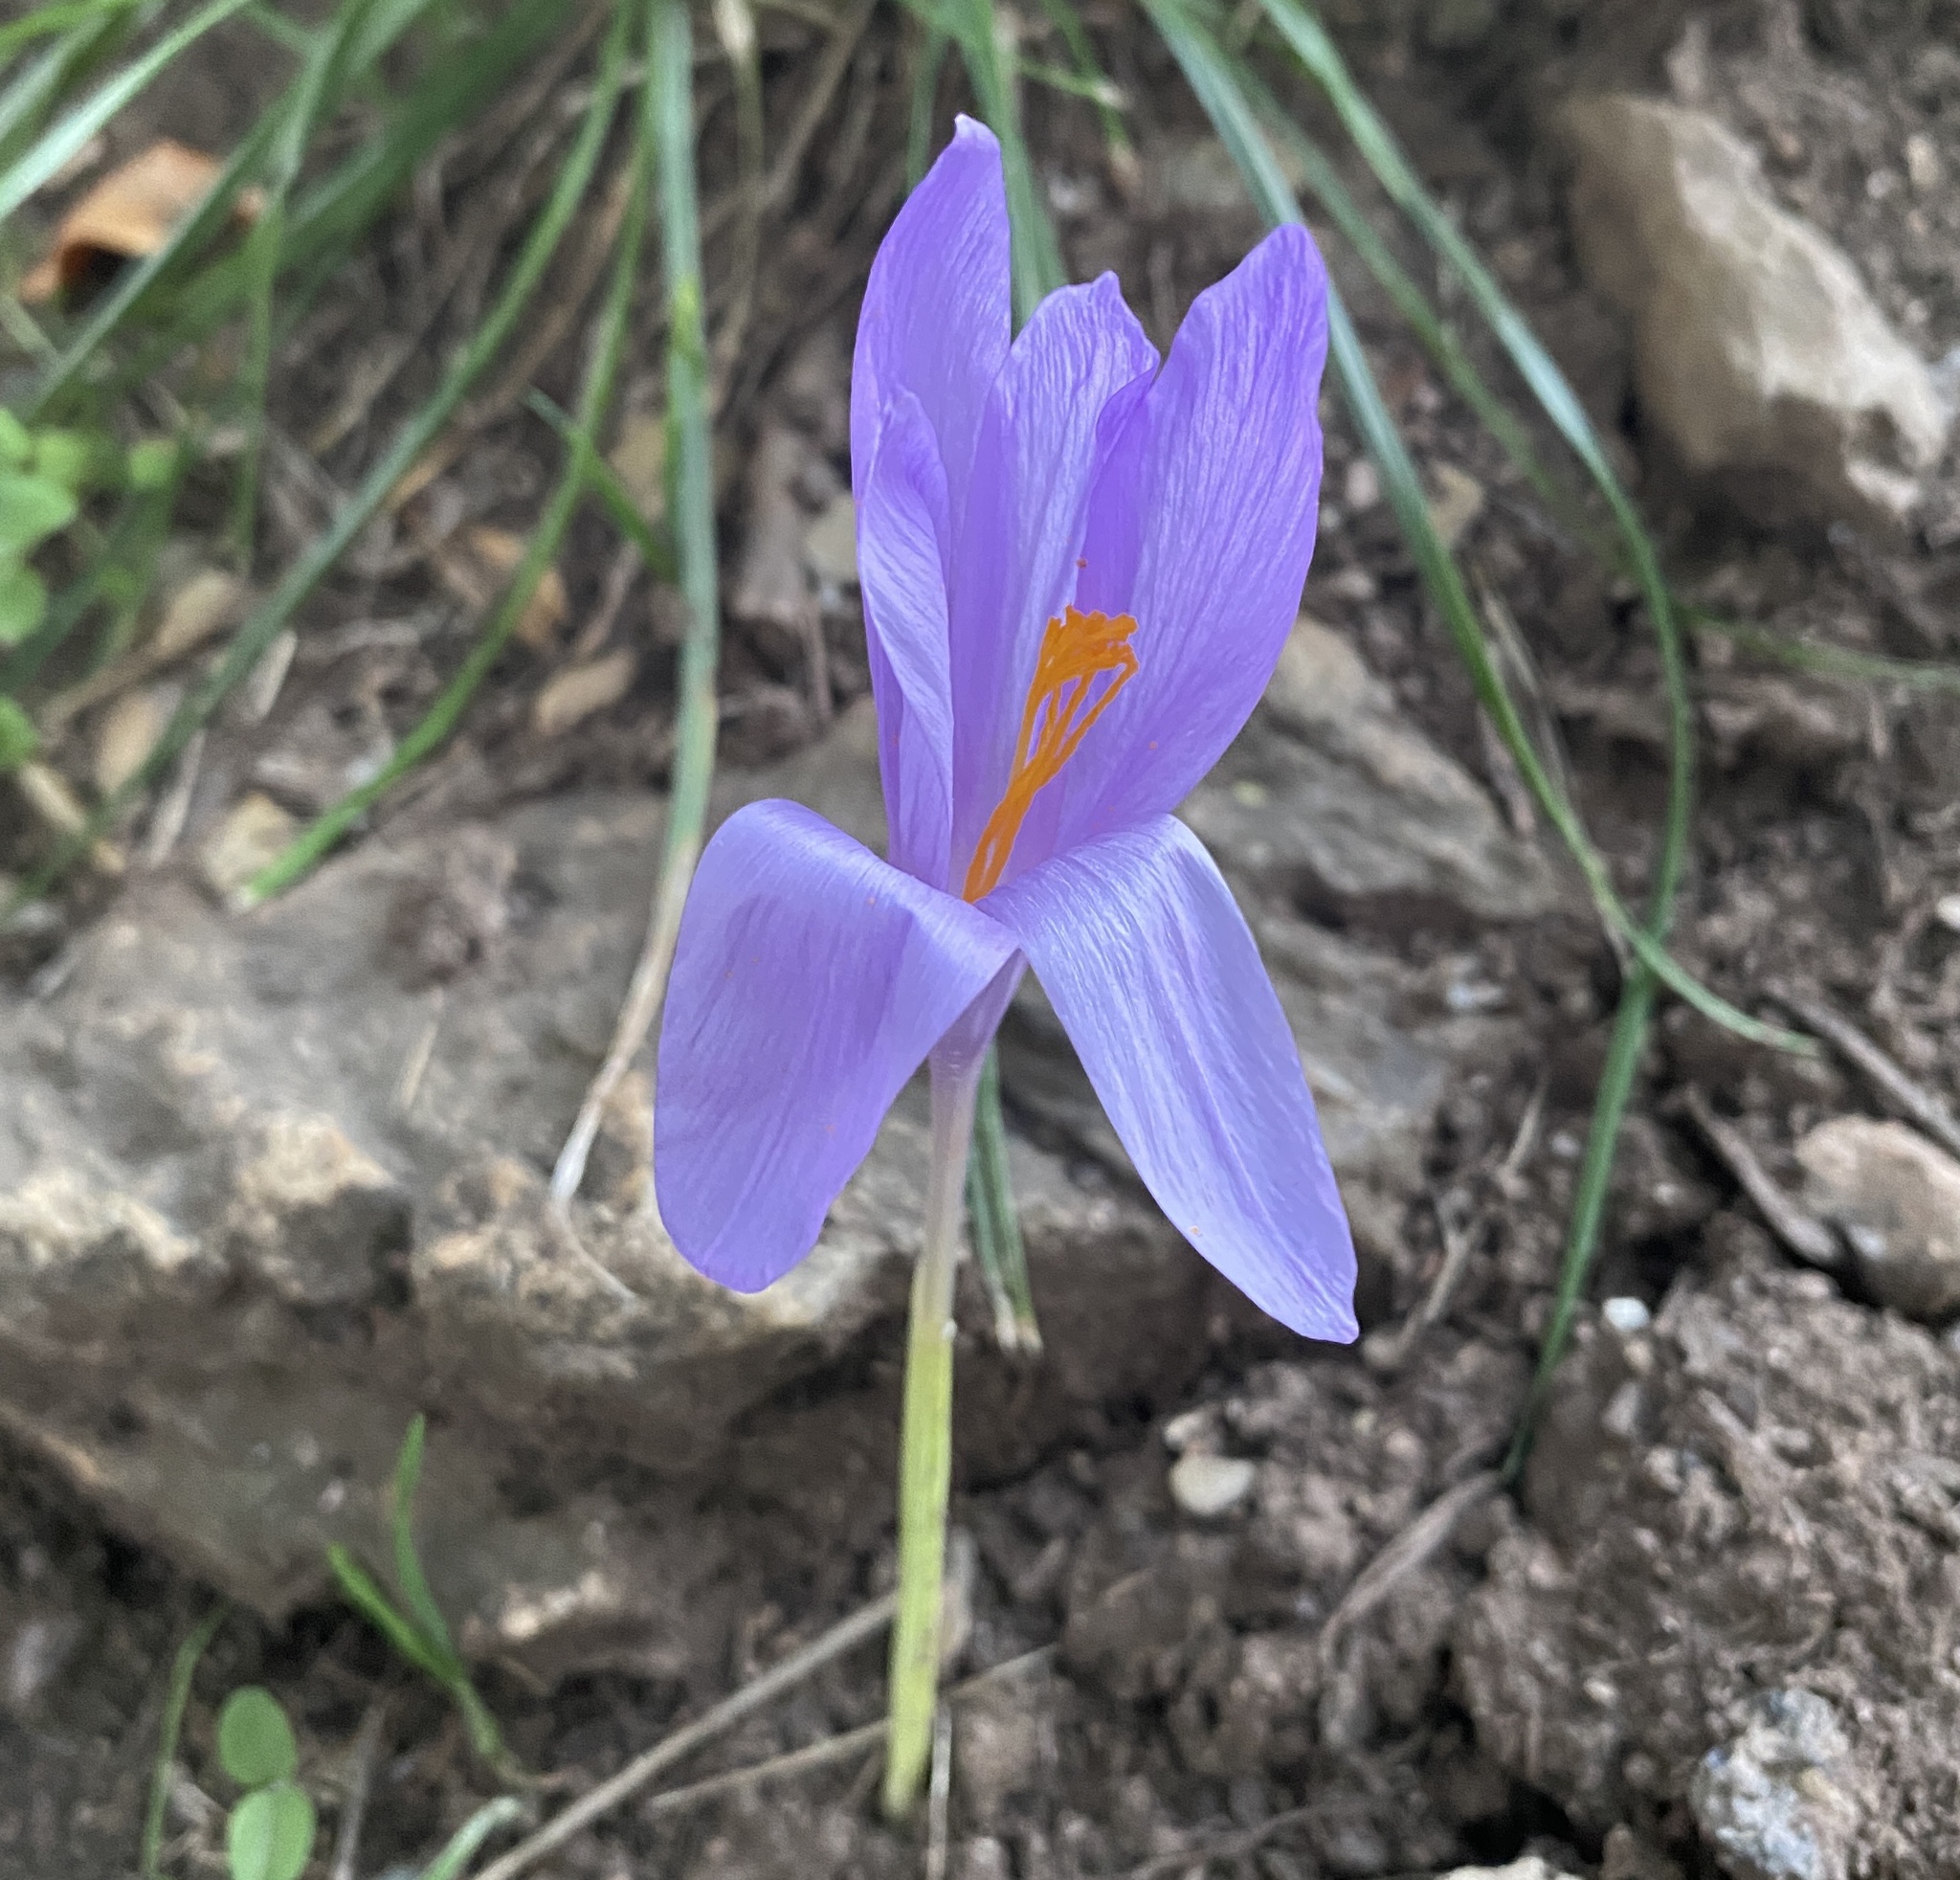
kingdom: Plantae
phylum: Tracheophyta
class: Liliopsida
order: Asparagales
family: Iridaceae
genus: Crocus
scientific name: Crocus nudiflorus
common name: Autumn crocus
